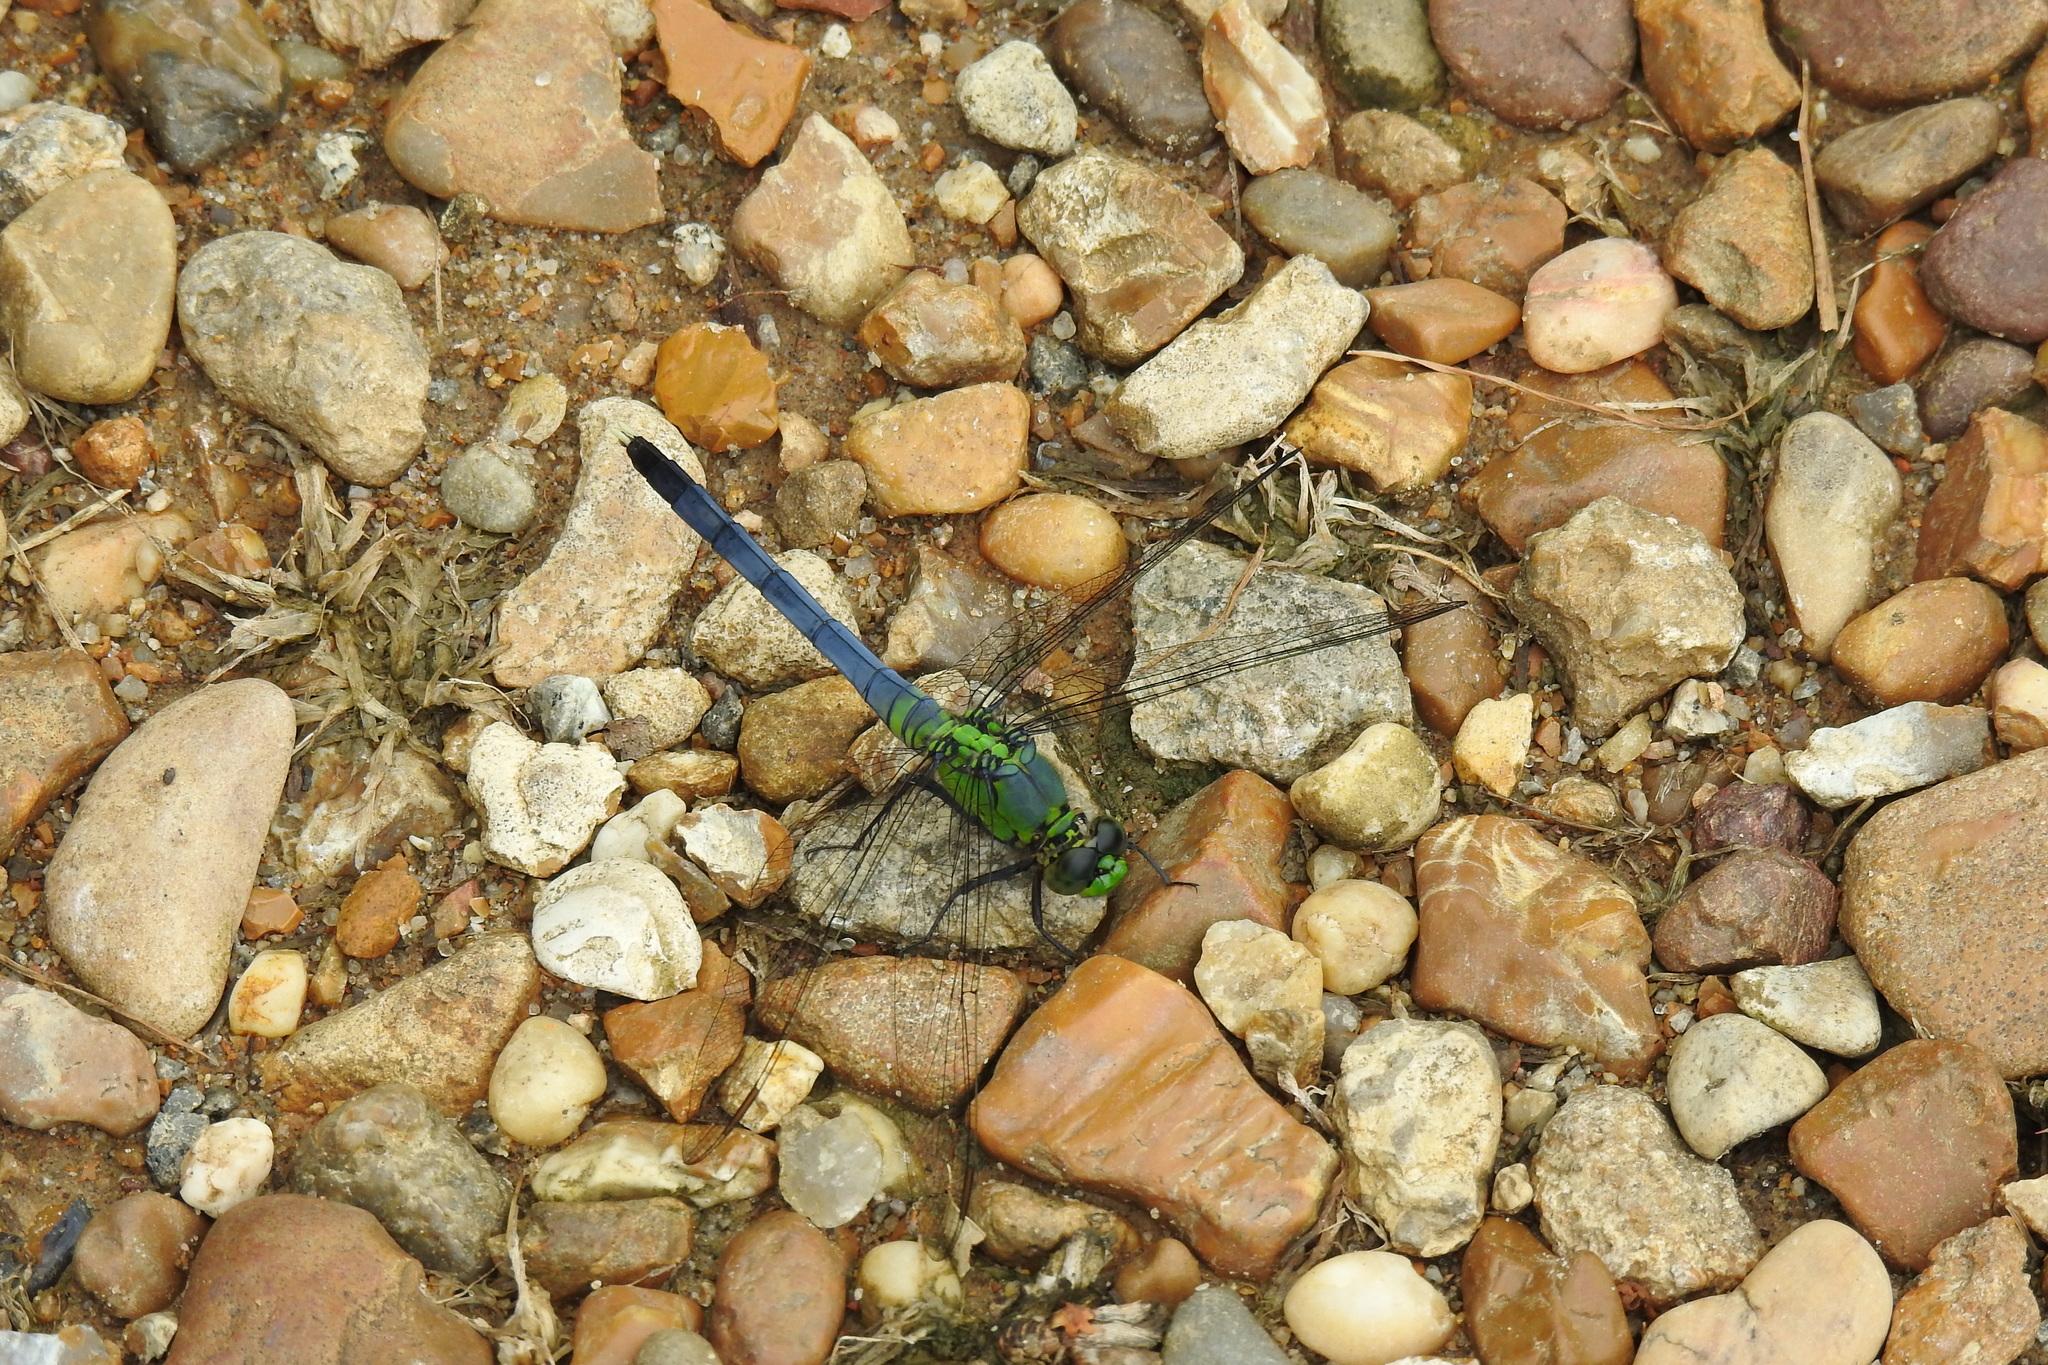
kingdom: Animalia
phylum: Arthropoda
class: Insecta
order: Odonata
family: Libellulidae
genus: Erythemis
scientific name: Erythemis simplicicollis
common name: Eastern pondhawk
